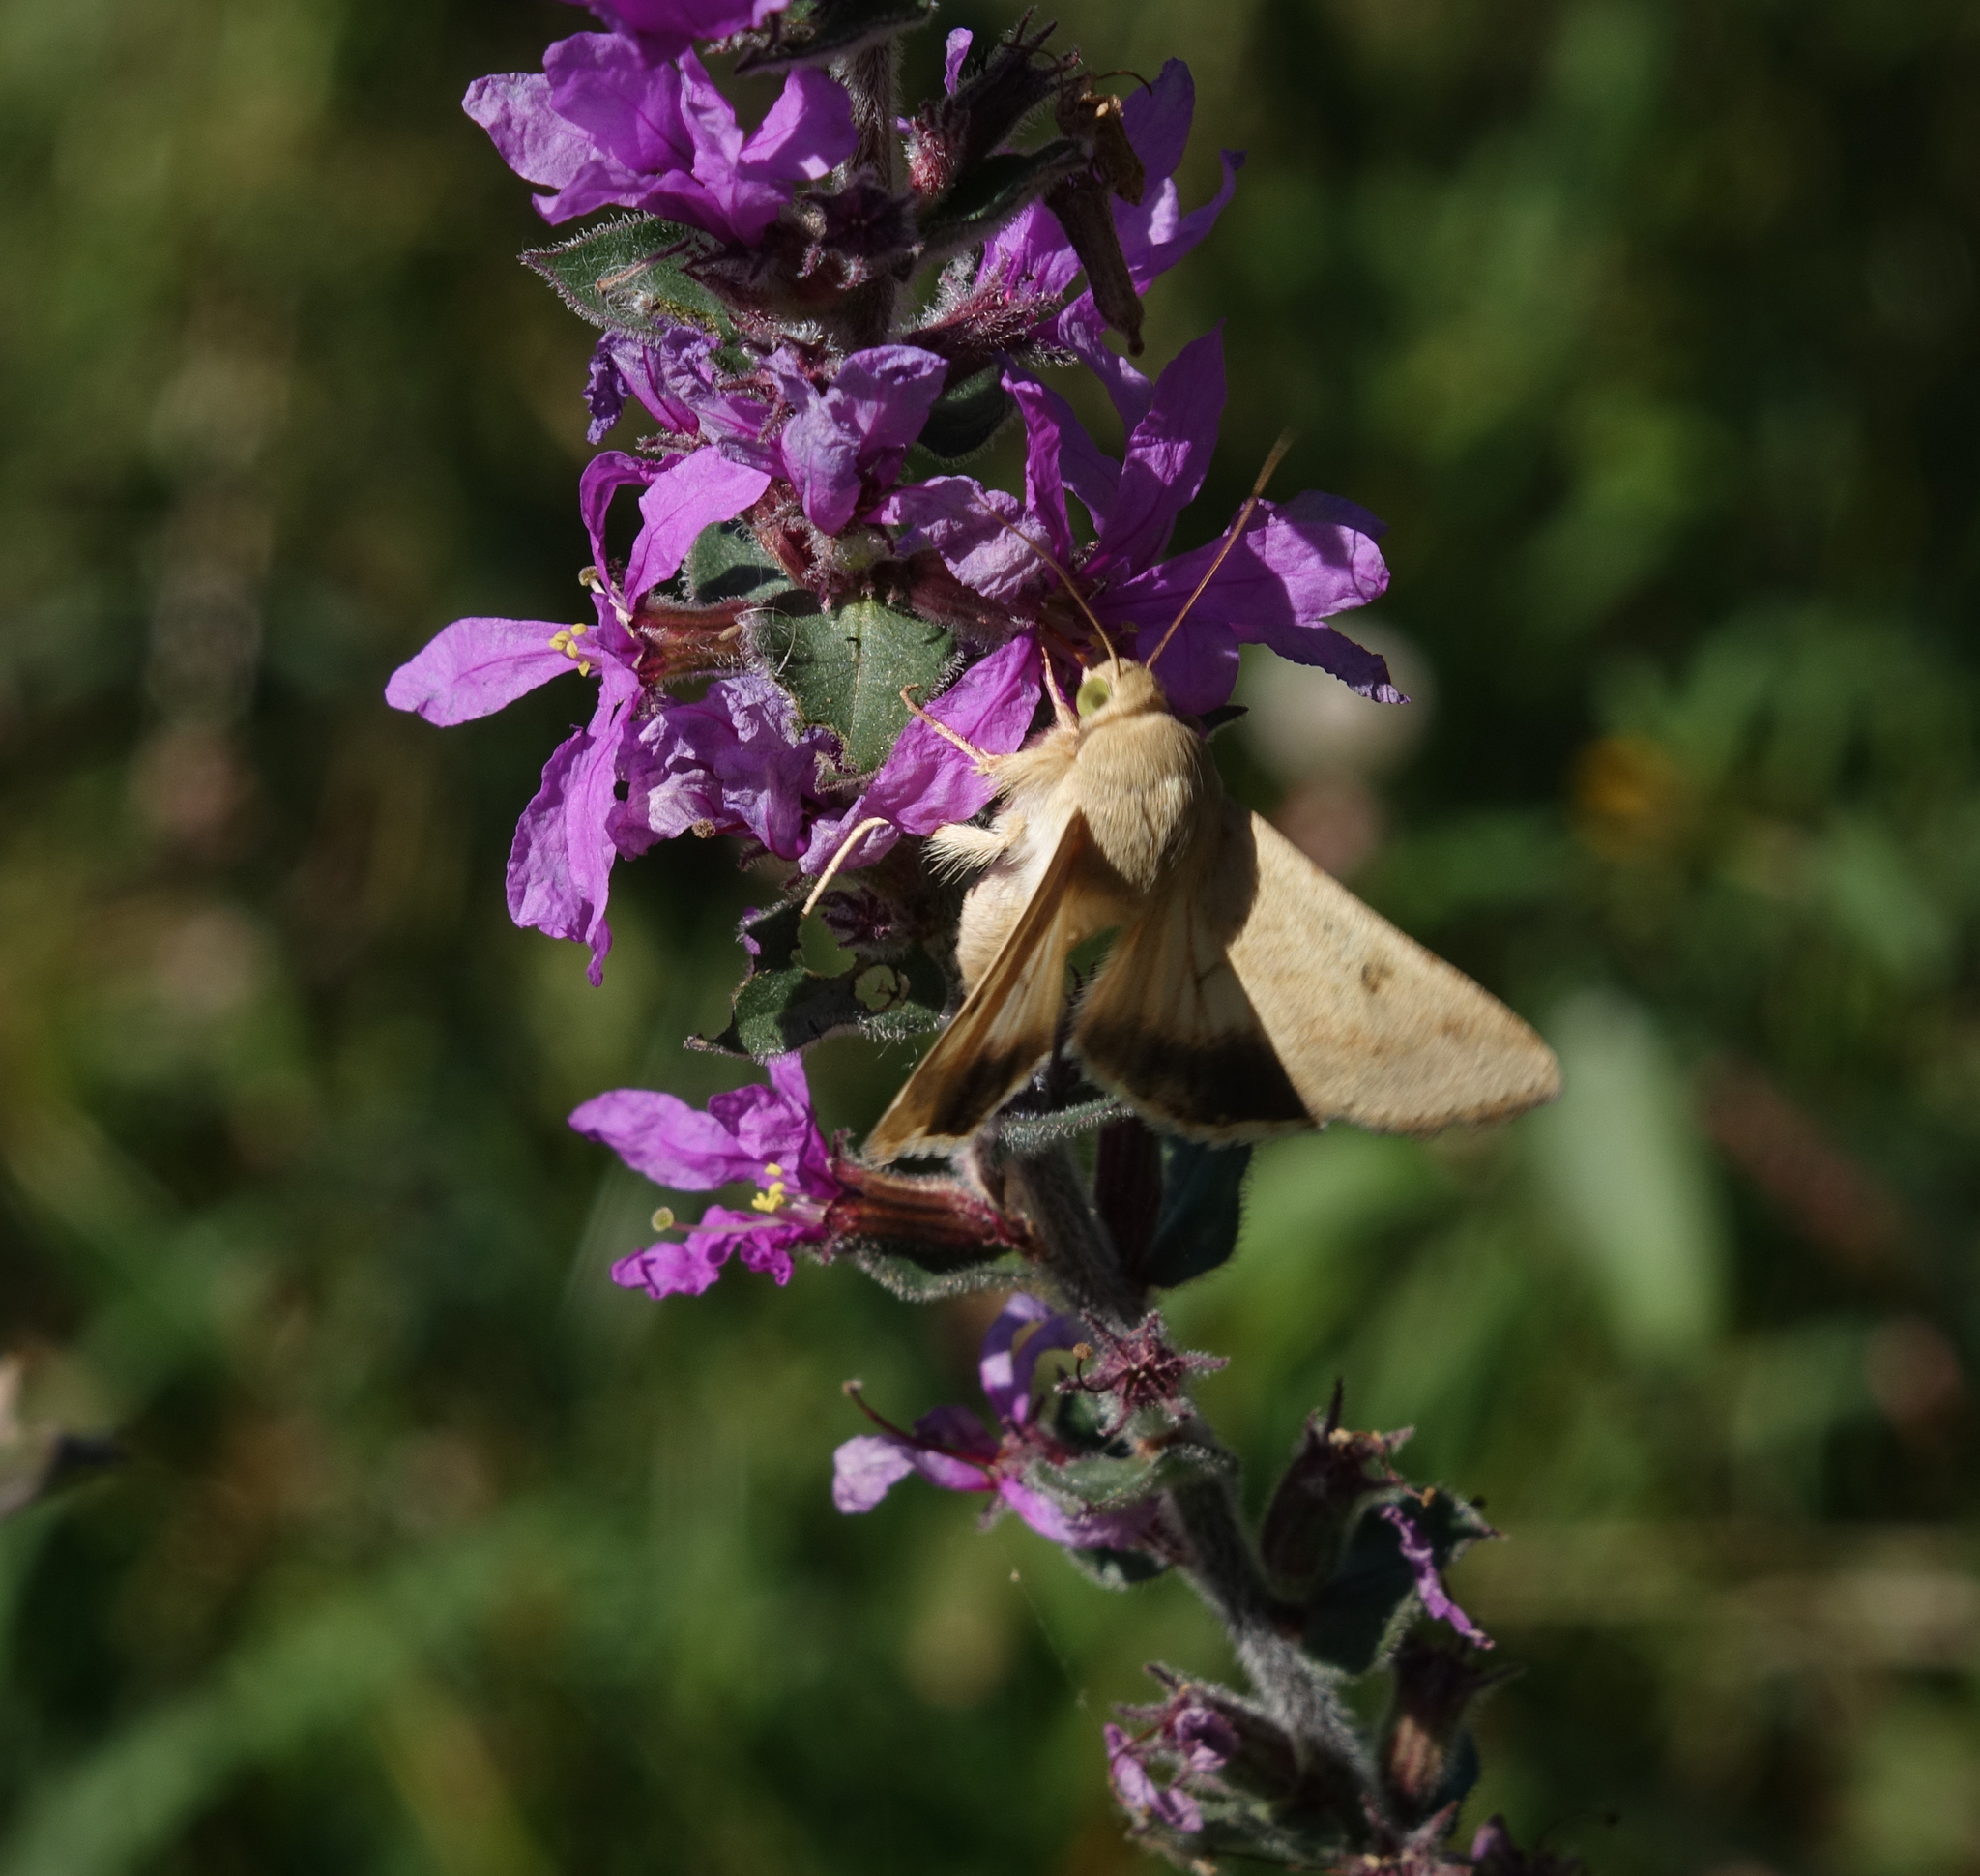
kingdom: Animalia
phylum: Arthropoda
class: Insecta
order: Lepidoptera
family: Noctuidae
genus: Helicoverpa
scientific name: Helicoverpa armigera
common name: Cotton bollworm
